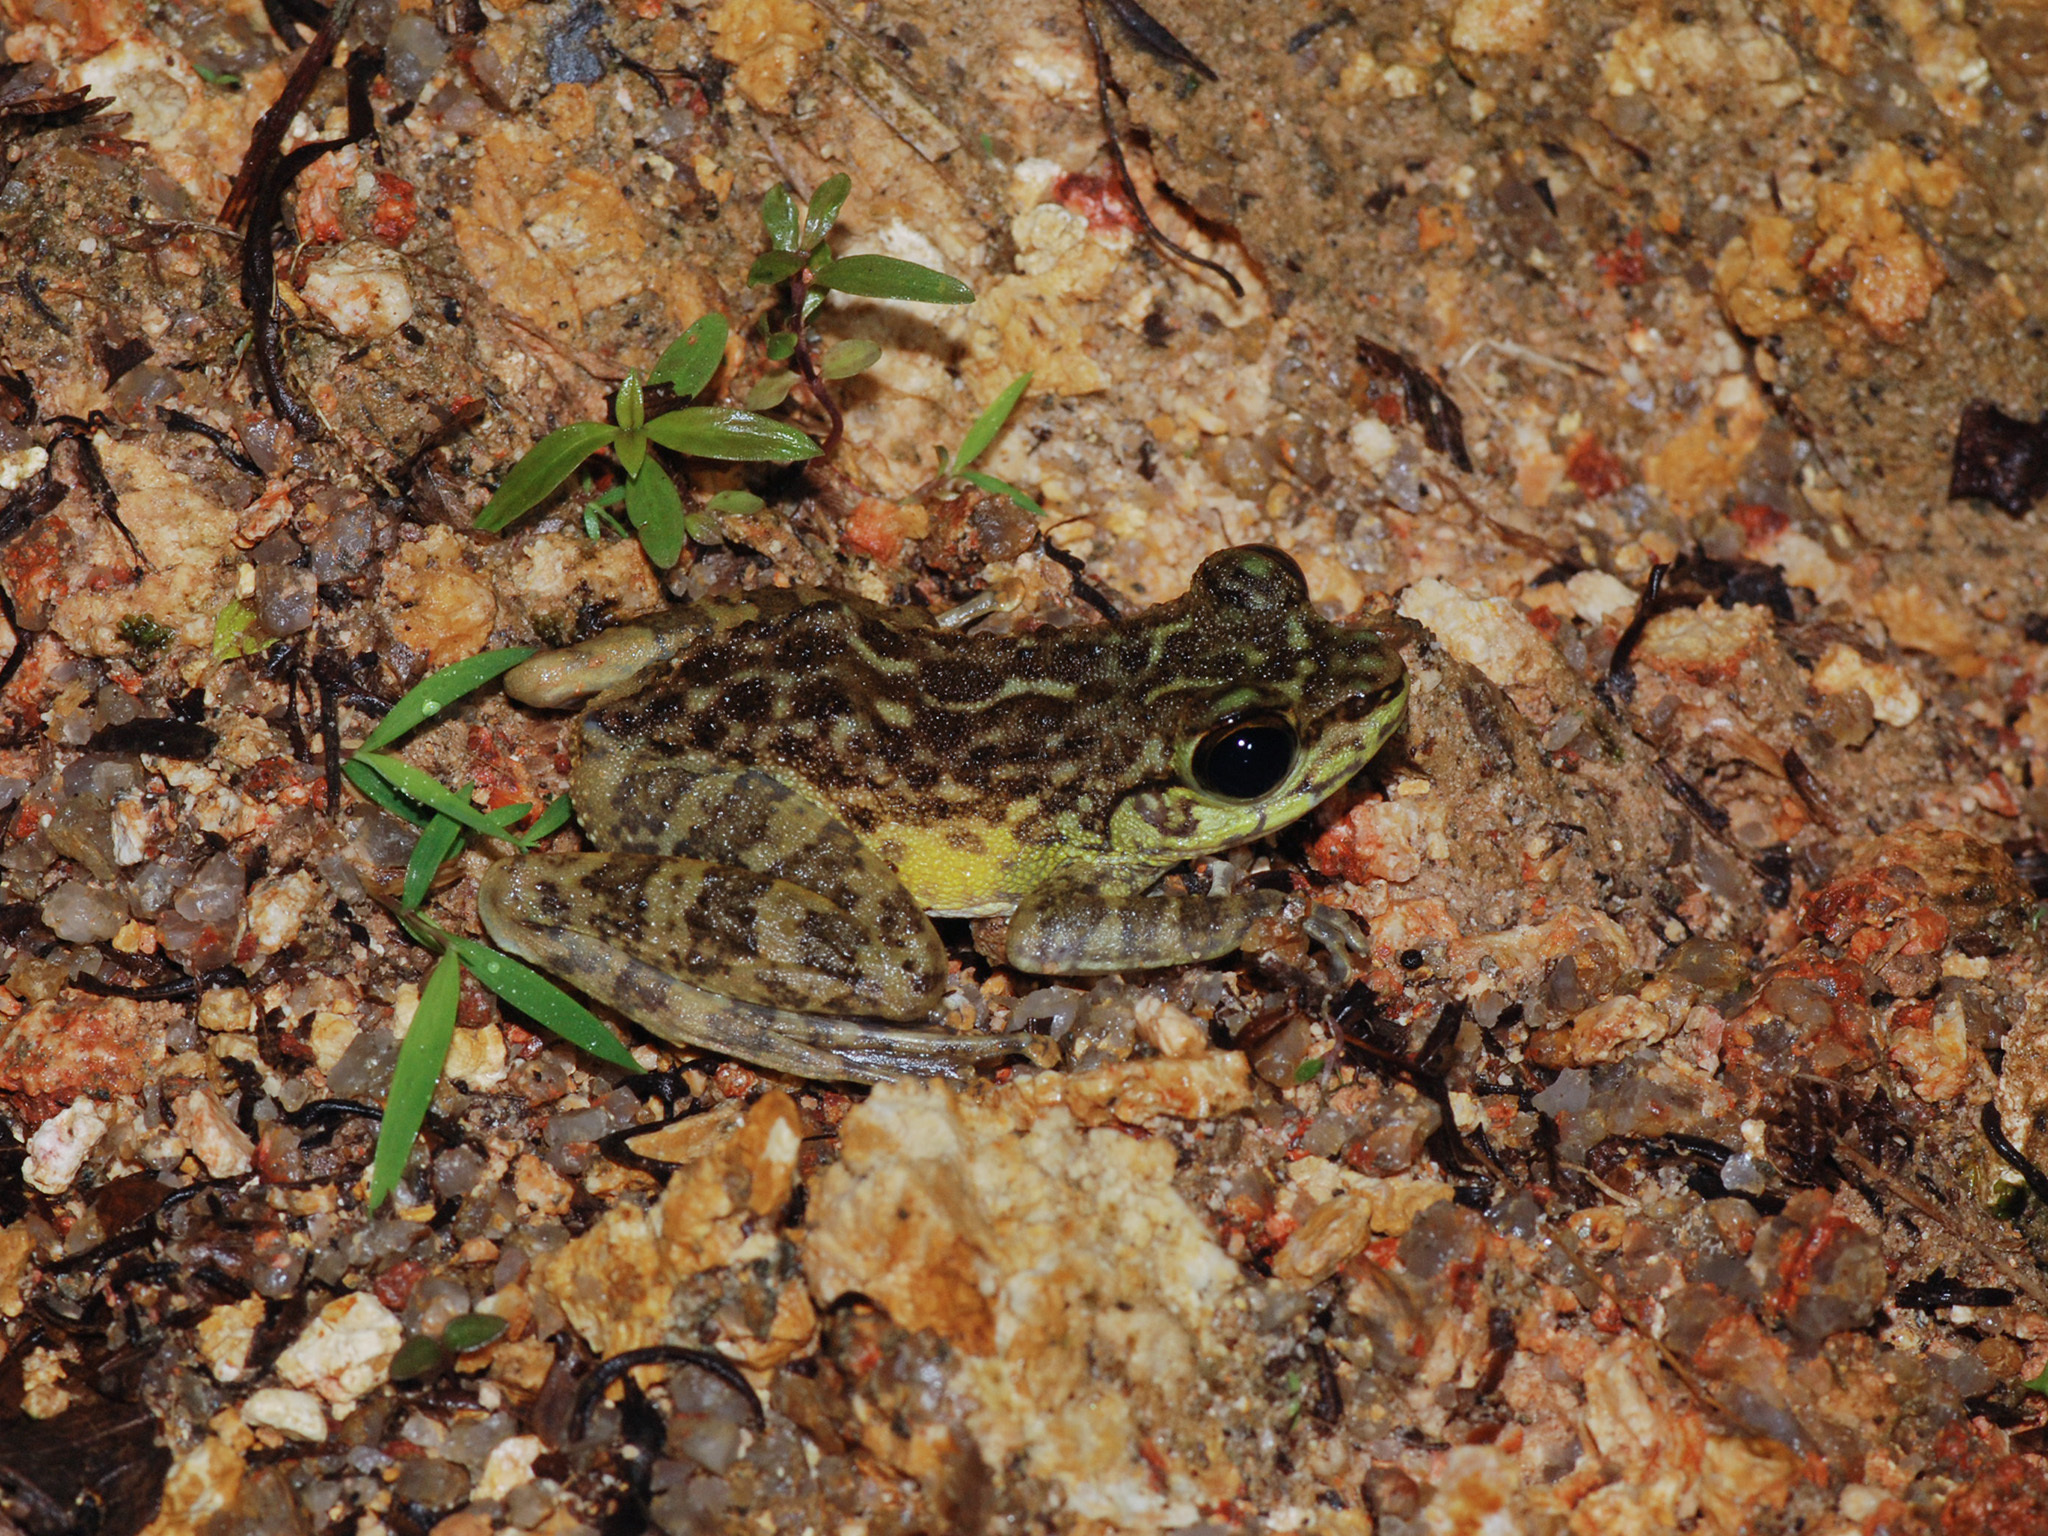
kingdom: Animalia
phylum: Chordata
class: Amphibia
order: Anura
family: Ranidae
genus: Amolops
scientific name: Amolops larutensis
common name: Larut sucker frog/torrent frog/southern pad-discked frog/larut hill cascade frog
